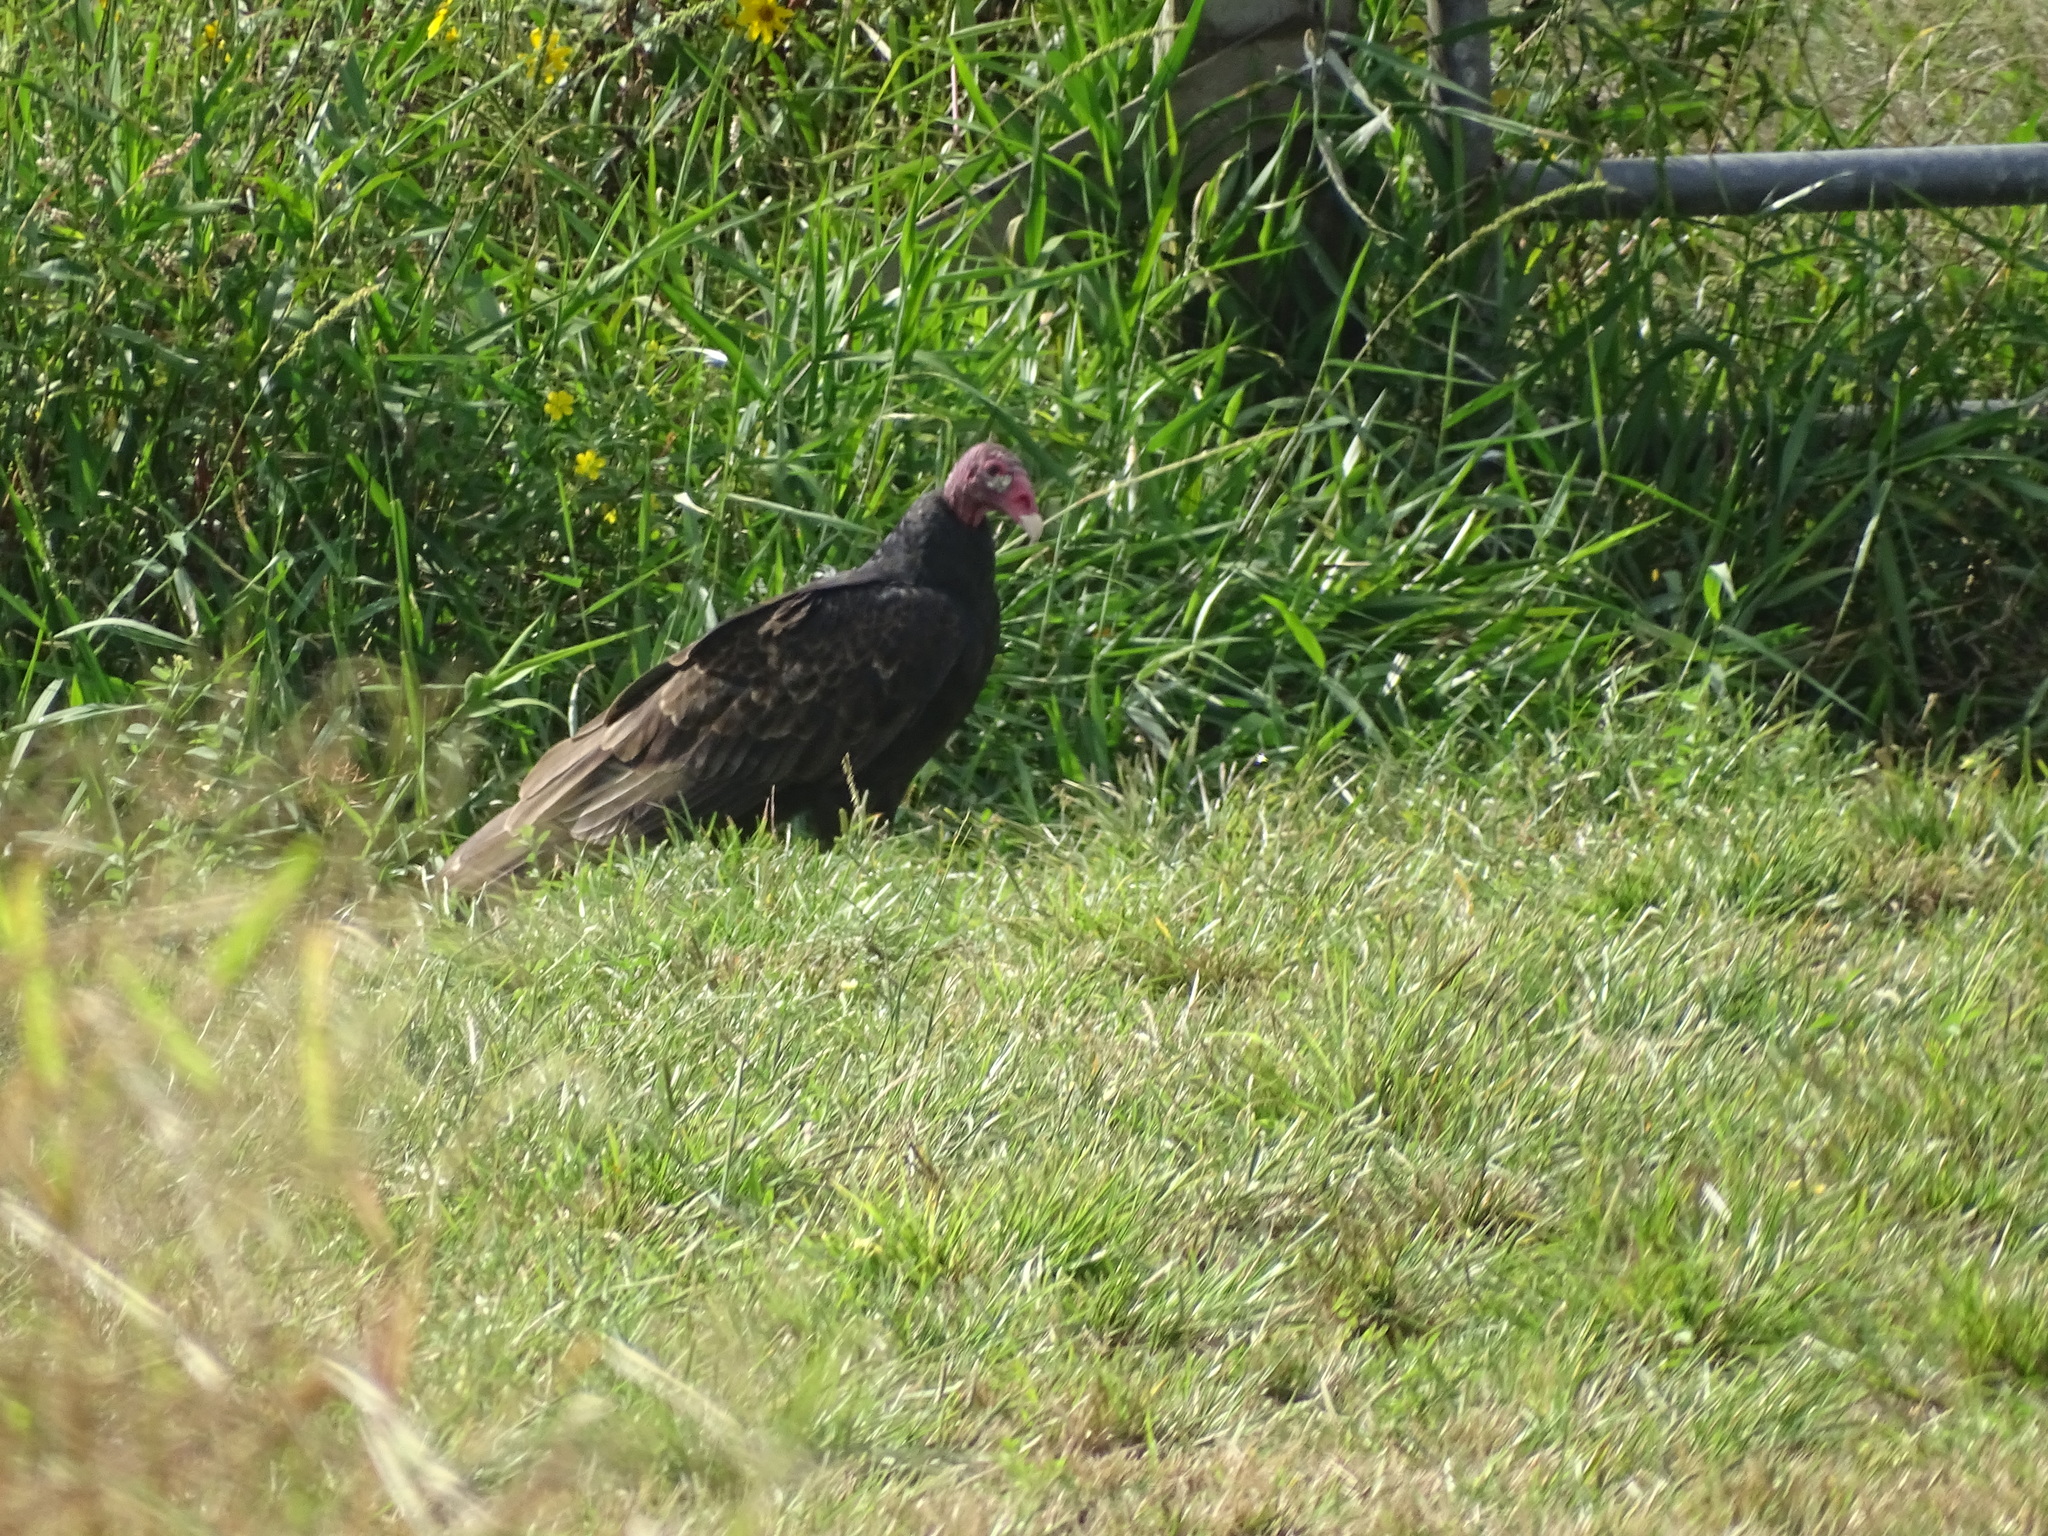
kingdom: Animalia
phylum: Chordata
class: Aves
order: Accipitriformes
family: Cathartidae
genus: Cathartes
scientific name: Cathartes aura
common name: Turkey vulture
